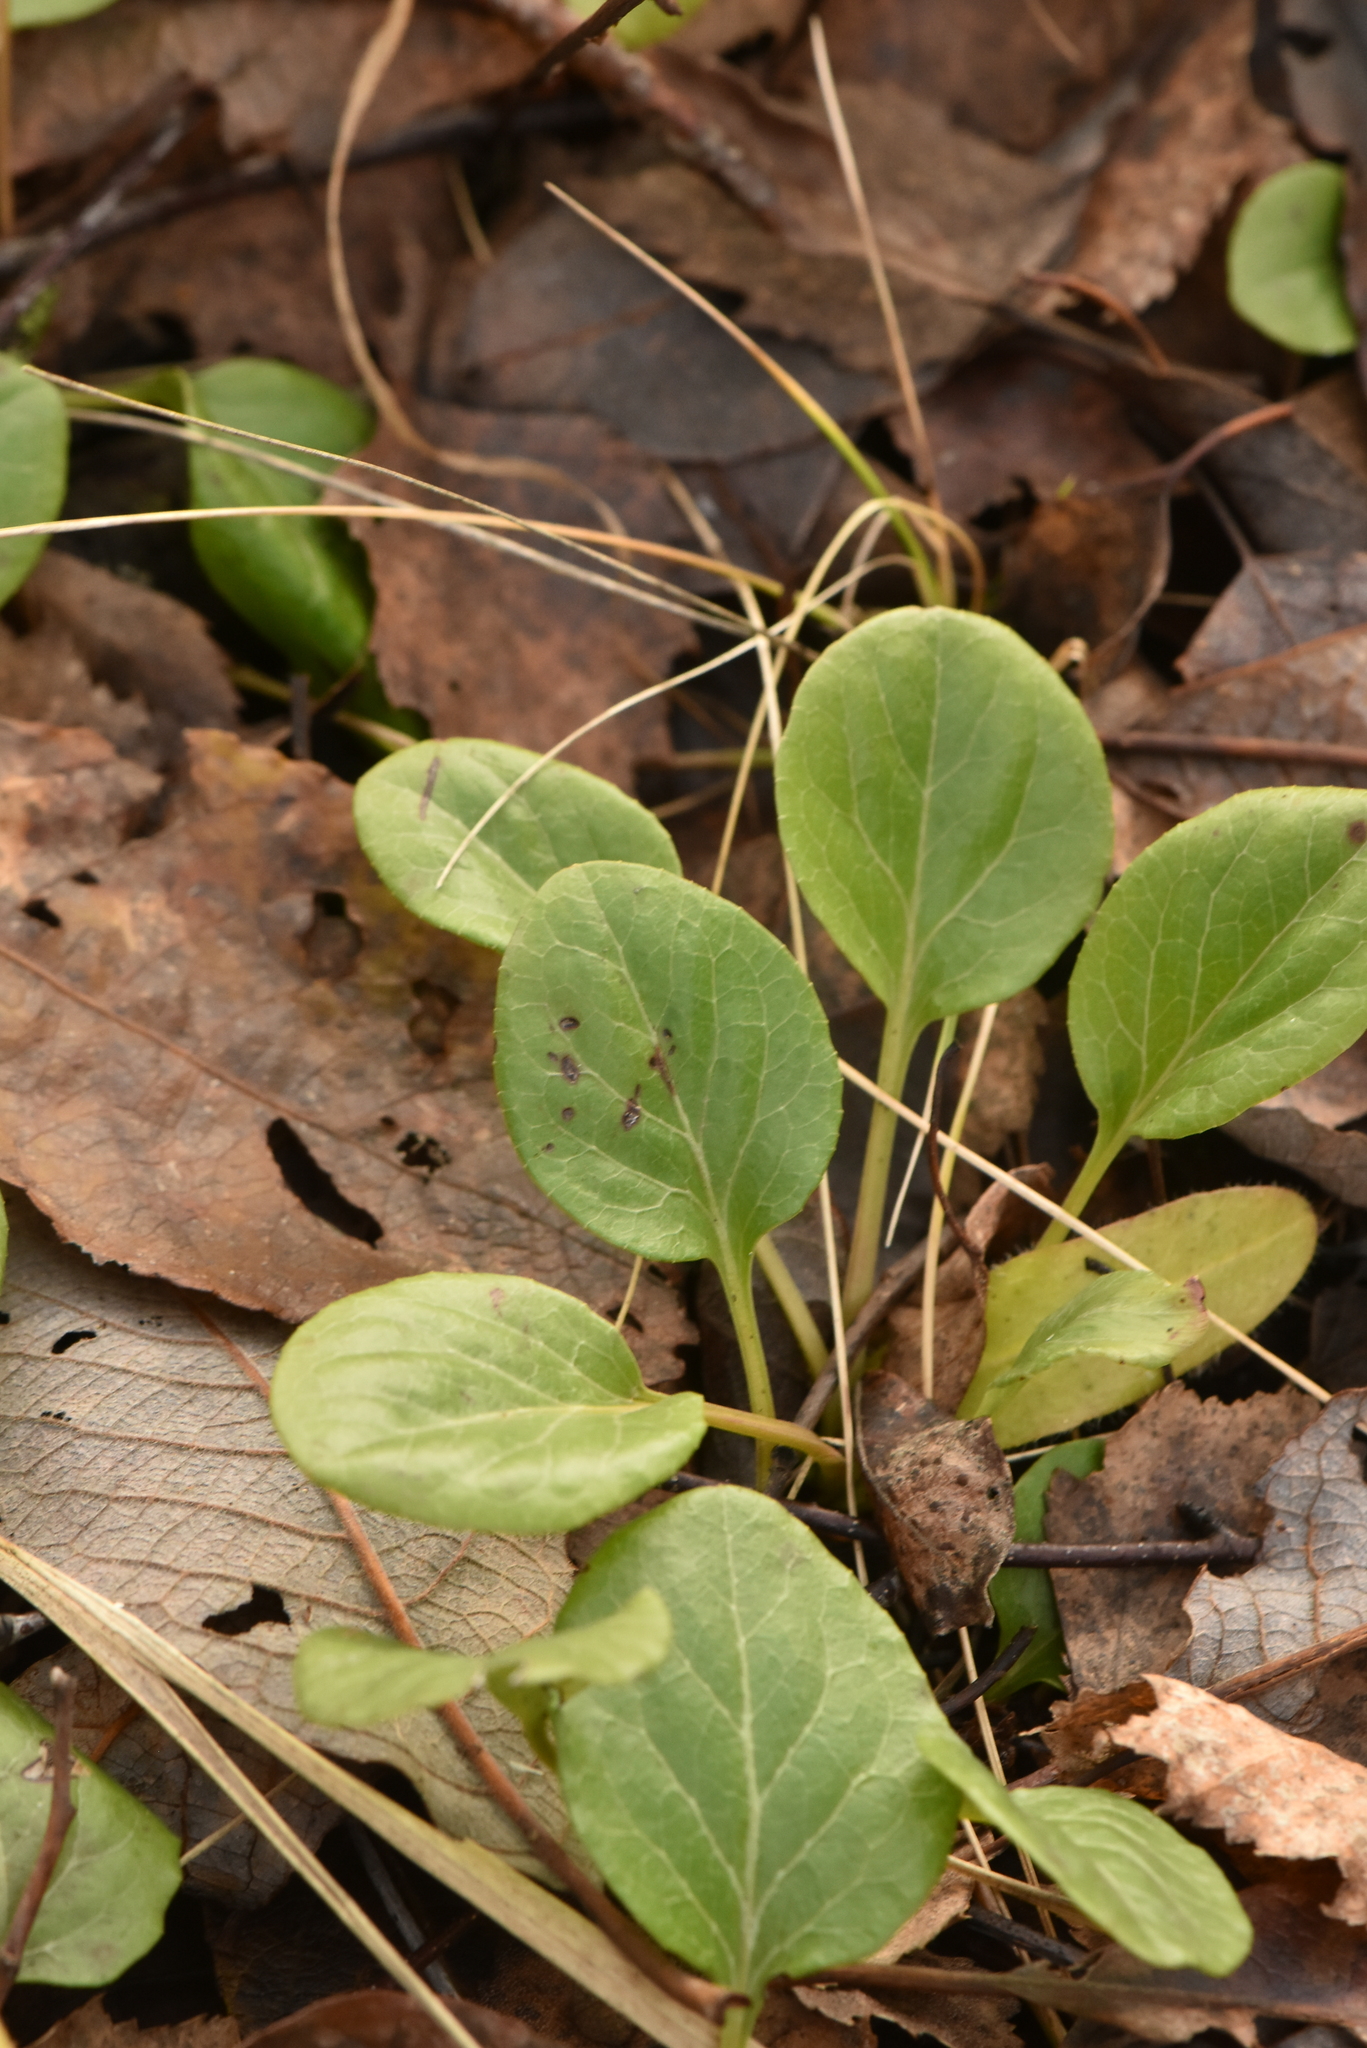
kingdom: Plantae
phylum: Tracheophyta
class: Magnoliopsida
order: Ericales
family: Ericaceae
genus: Pyrola
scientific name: Pyrola minor
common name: Common wintergreen
